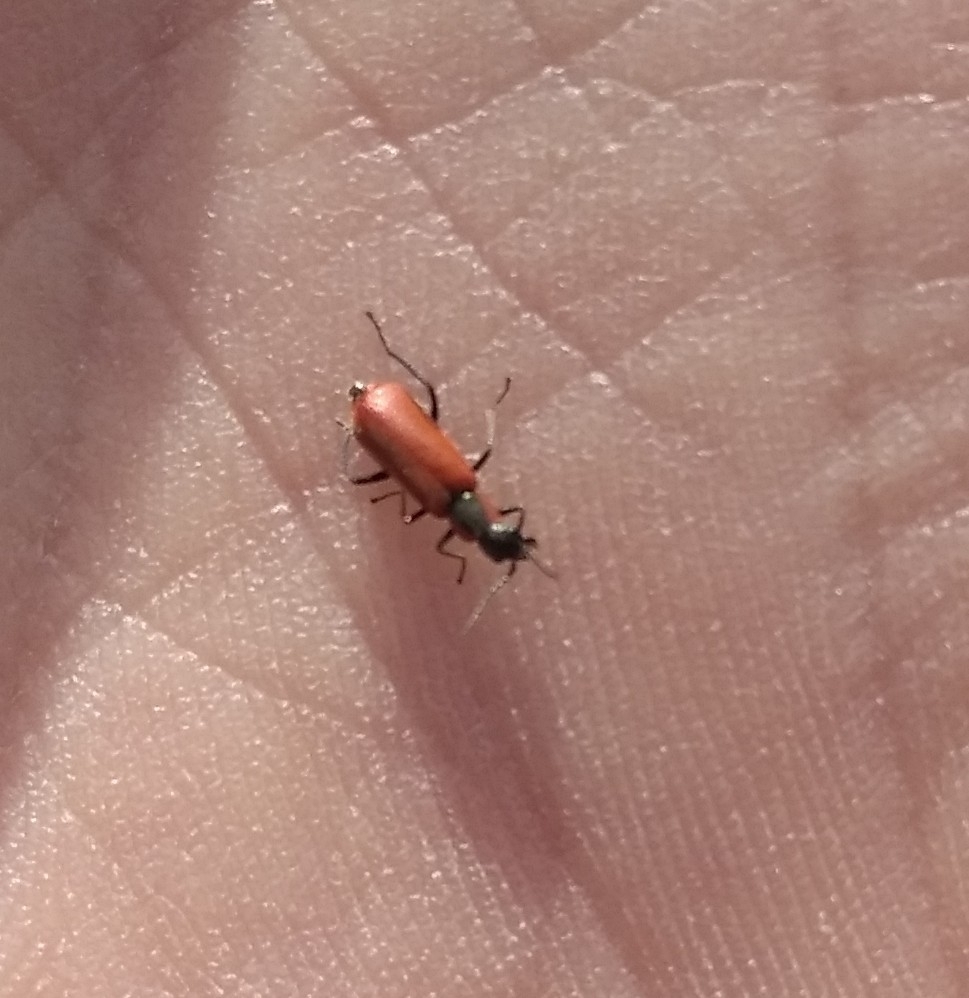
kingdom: Animalia
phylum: Arthropoda
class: Insecta
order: Coleoptera
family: Melyridae
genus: Anthocomus
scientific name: Anthocomus rufus
